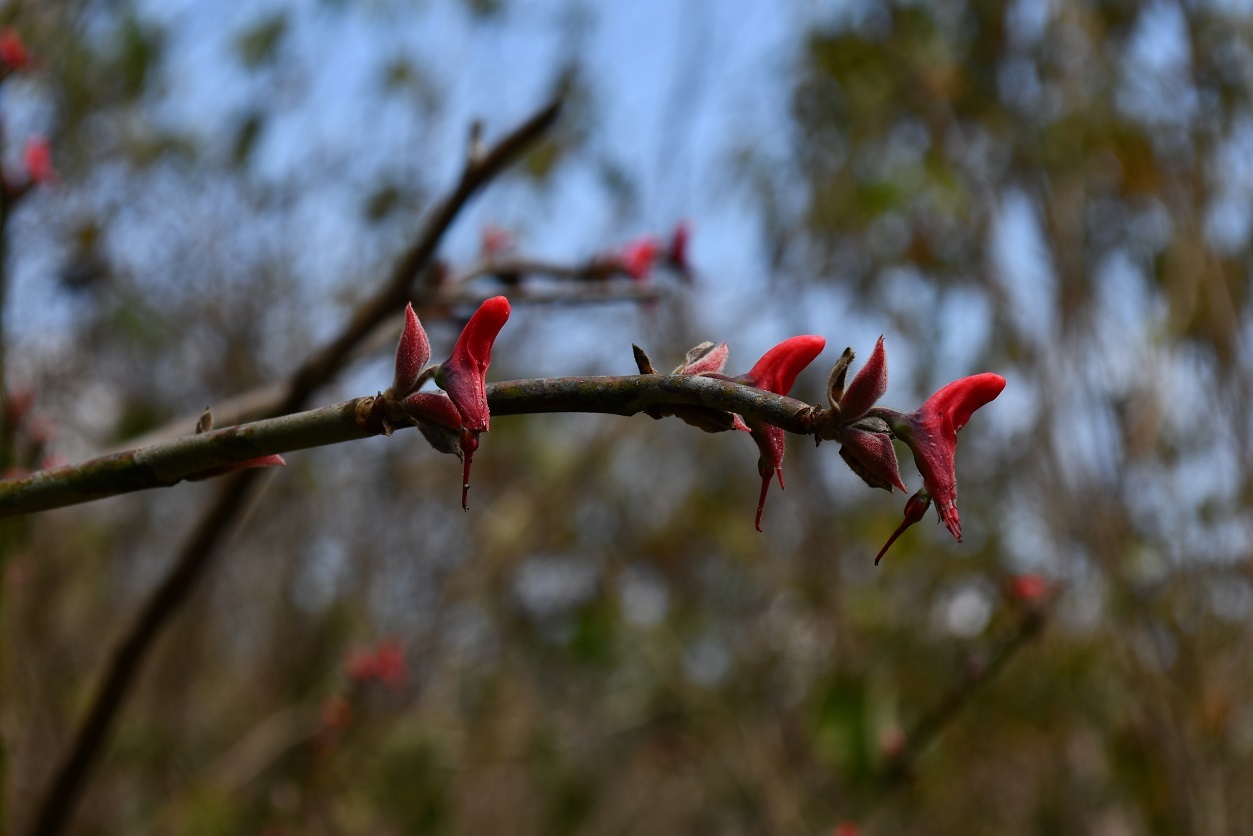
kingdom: Plantae
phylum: Tracheophyta
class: Magnoliopsida
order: Malpighiales
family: Euphorbiaceae
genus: Euphorbia
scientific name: Euphorbia calcarata
